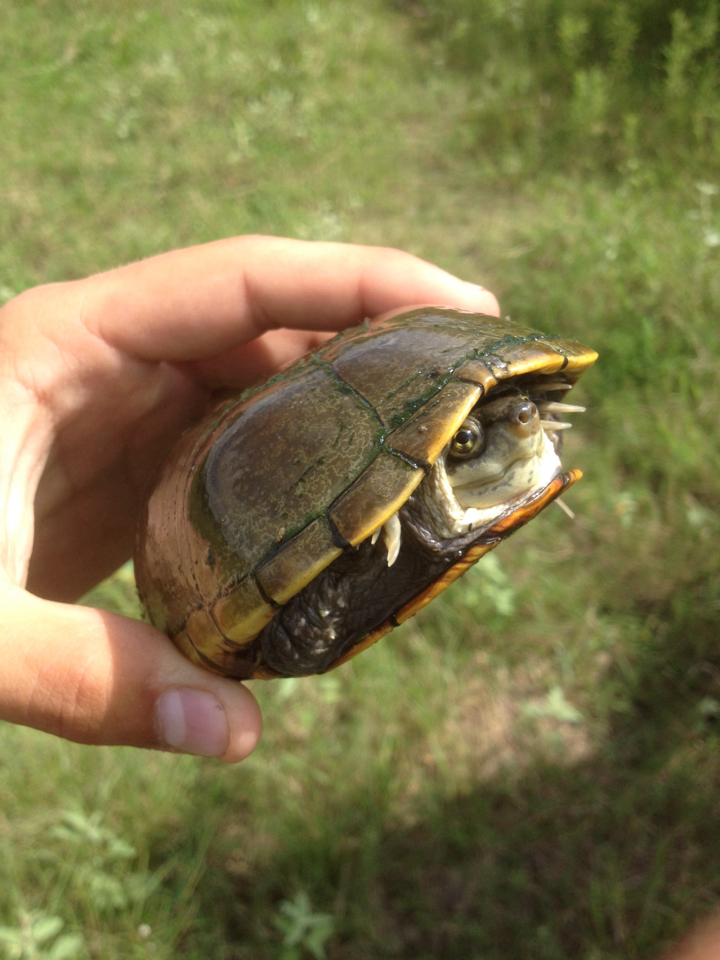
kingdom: Animalia
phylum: Chordata
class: Testudines
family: Kinosternidae
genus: Kinosternon
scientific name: Kinosternon flavescens
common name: Yellow mud turtle
